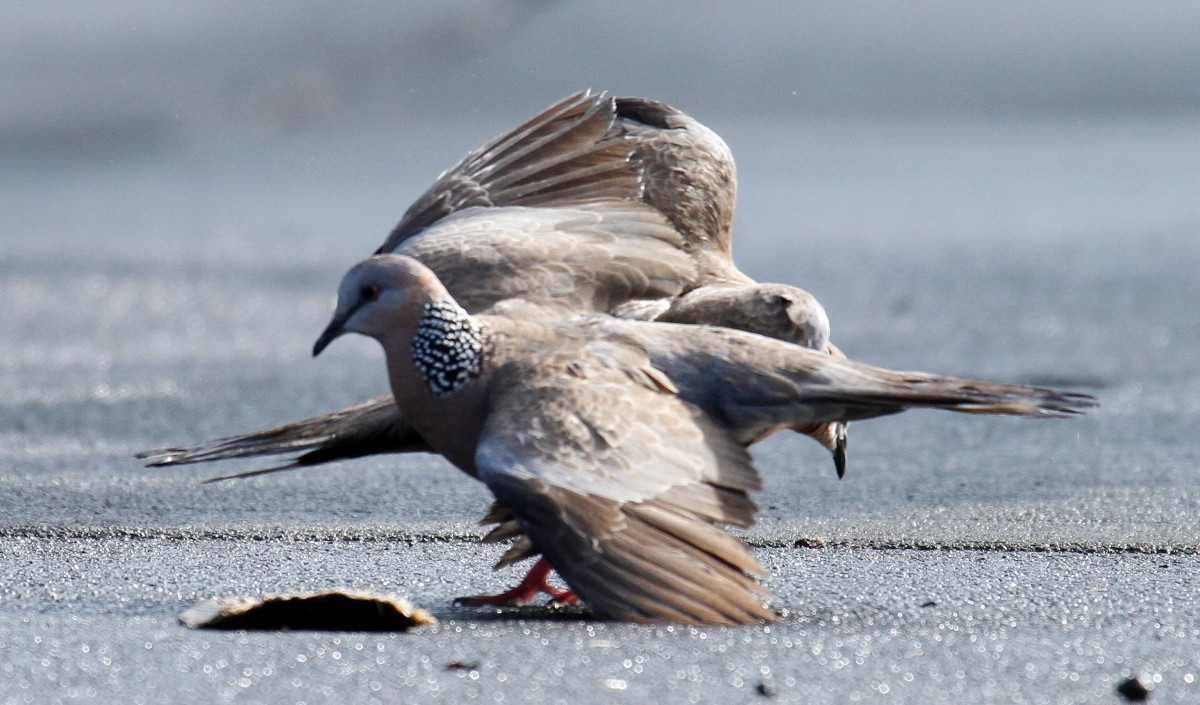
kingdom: Animalia
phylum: Chordata
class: Aves
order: Columbiformes
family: Columbidae
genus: Spilopelia
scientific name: Spilopelia chinensis
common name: Spotted dove
